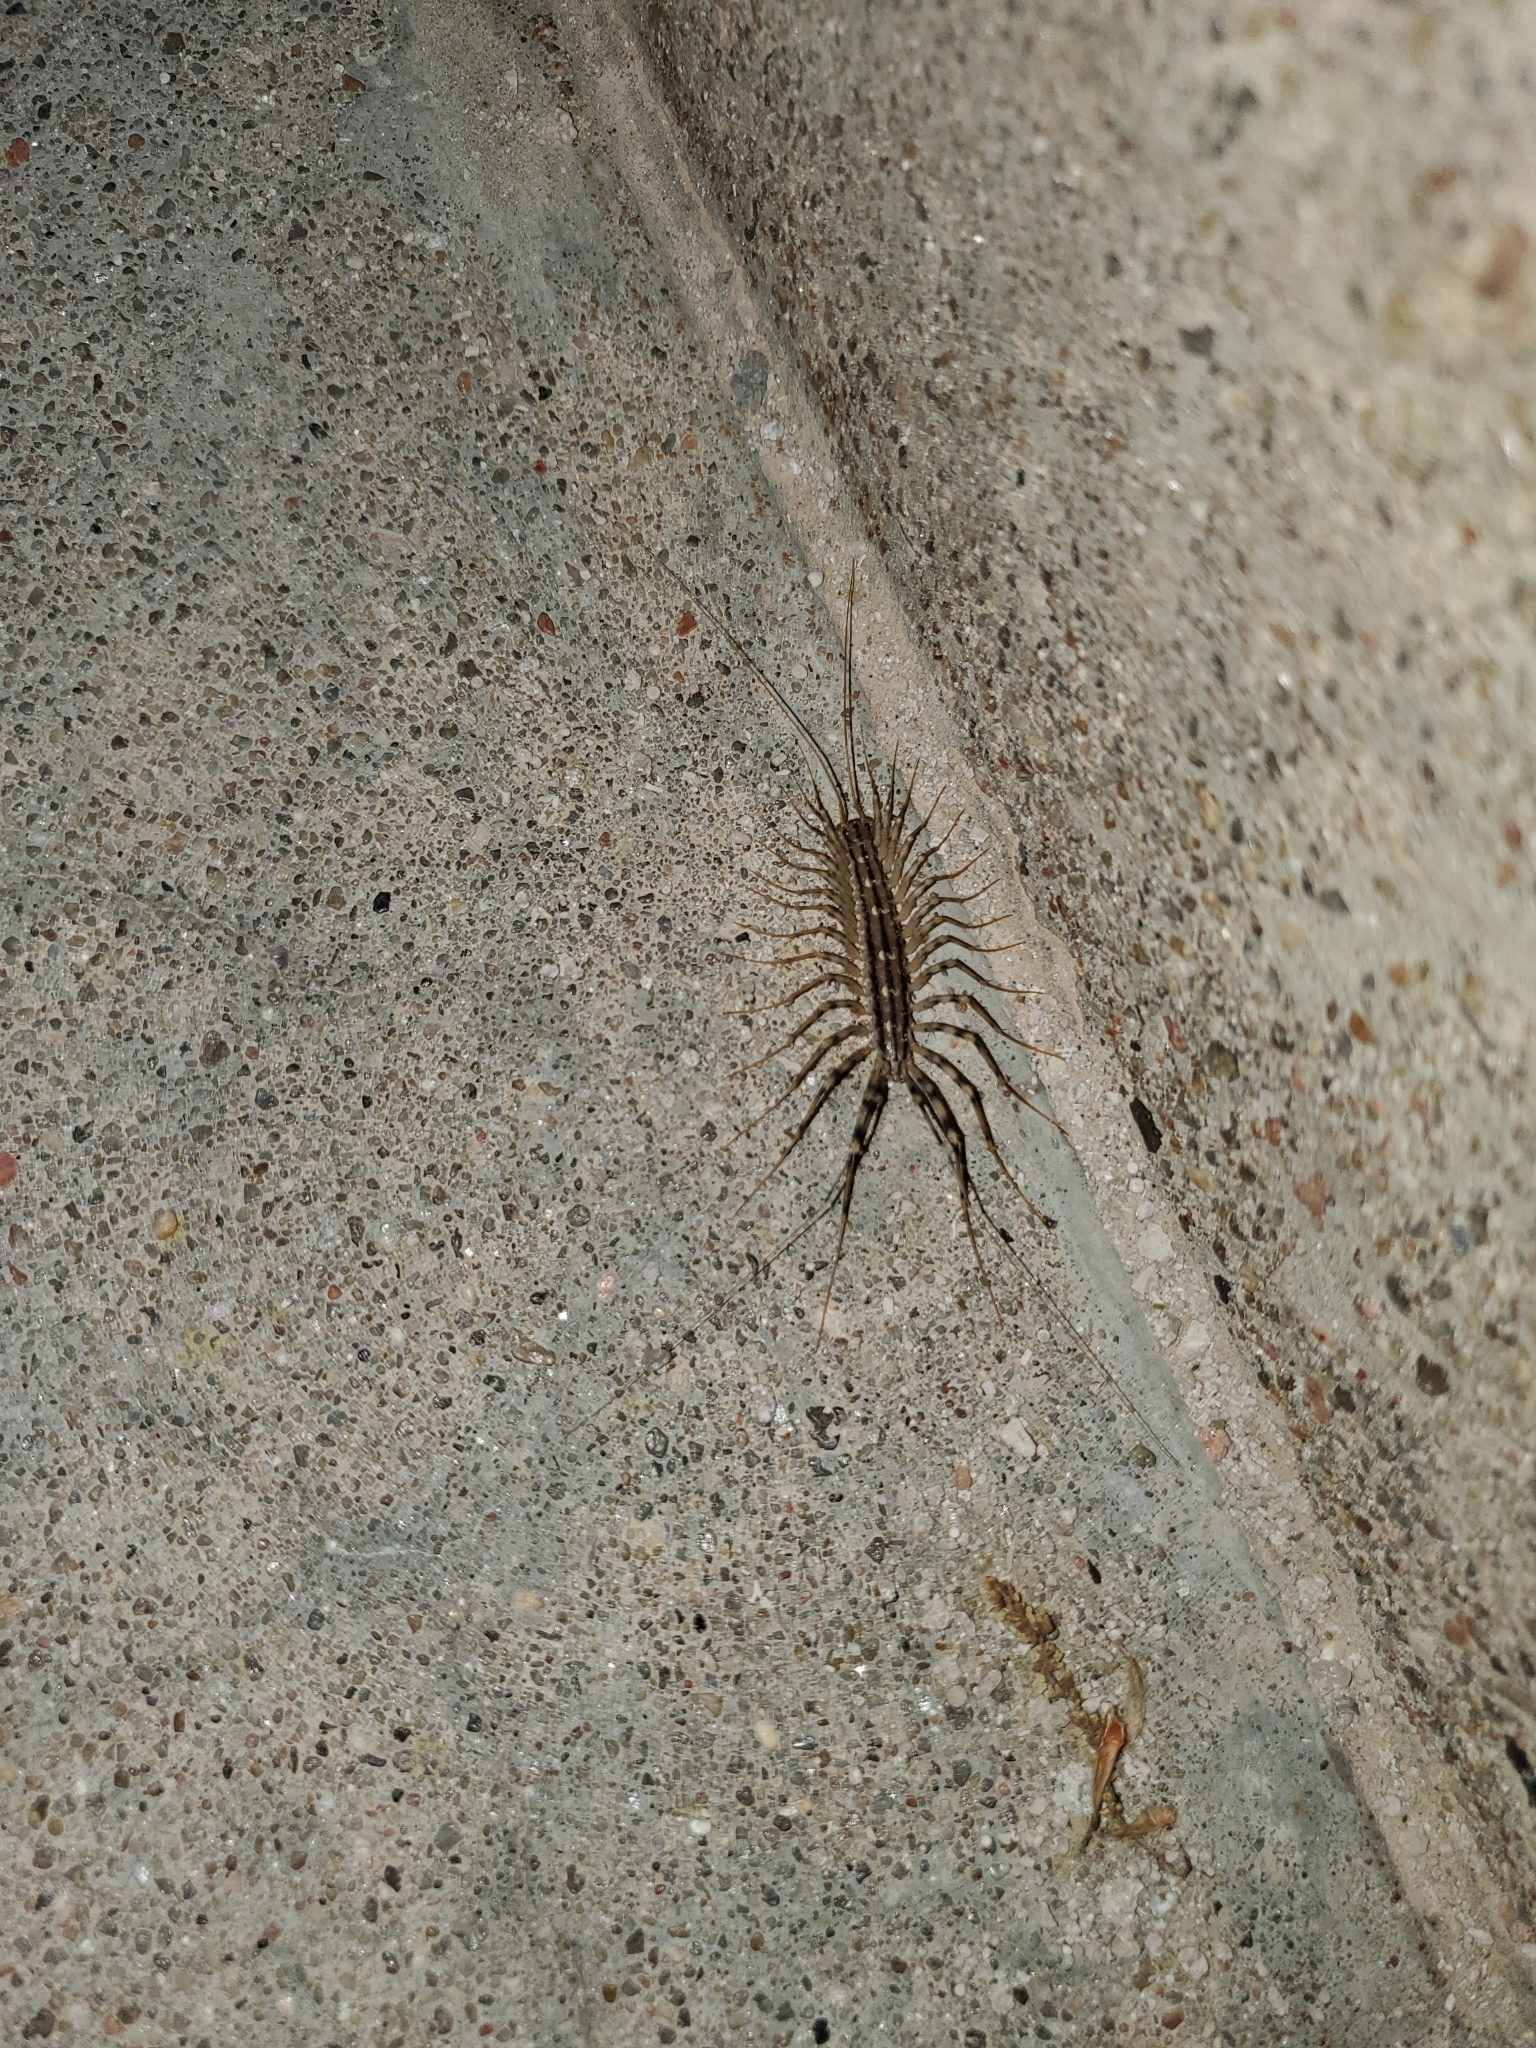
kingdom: Animalia
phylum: Arthropoda
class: Chilopoda
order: Scutigeromorpha
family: Scutigeridae
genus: Scutigera
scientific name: Scutigera coleoptrata
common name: House centipede
